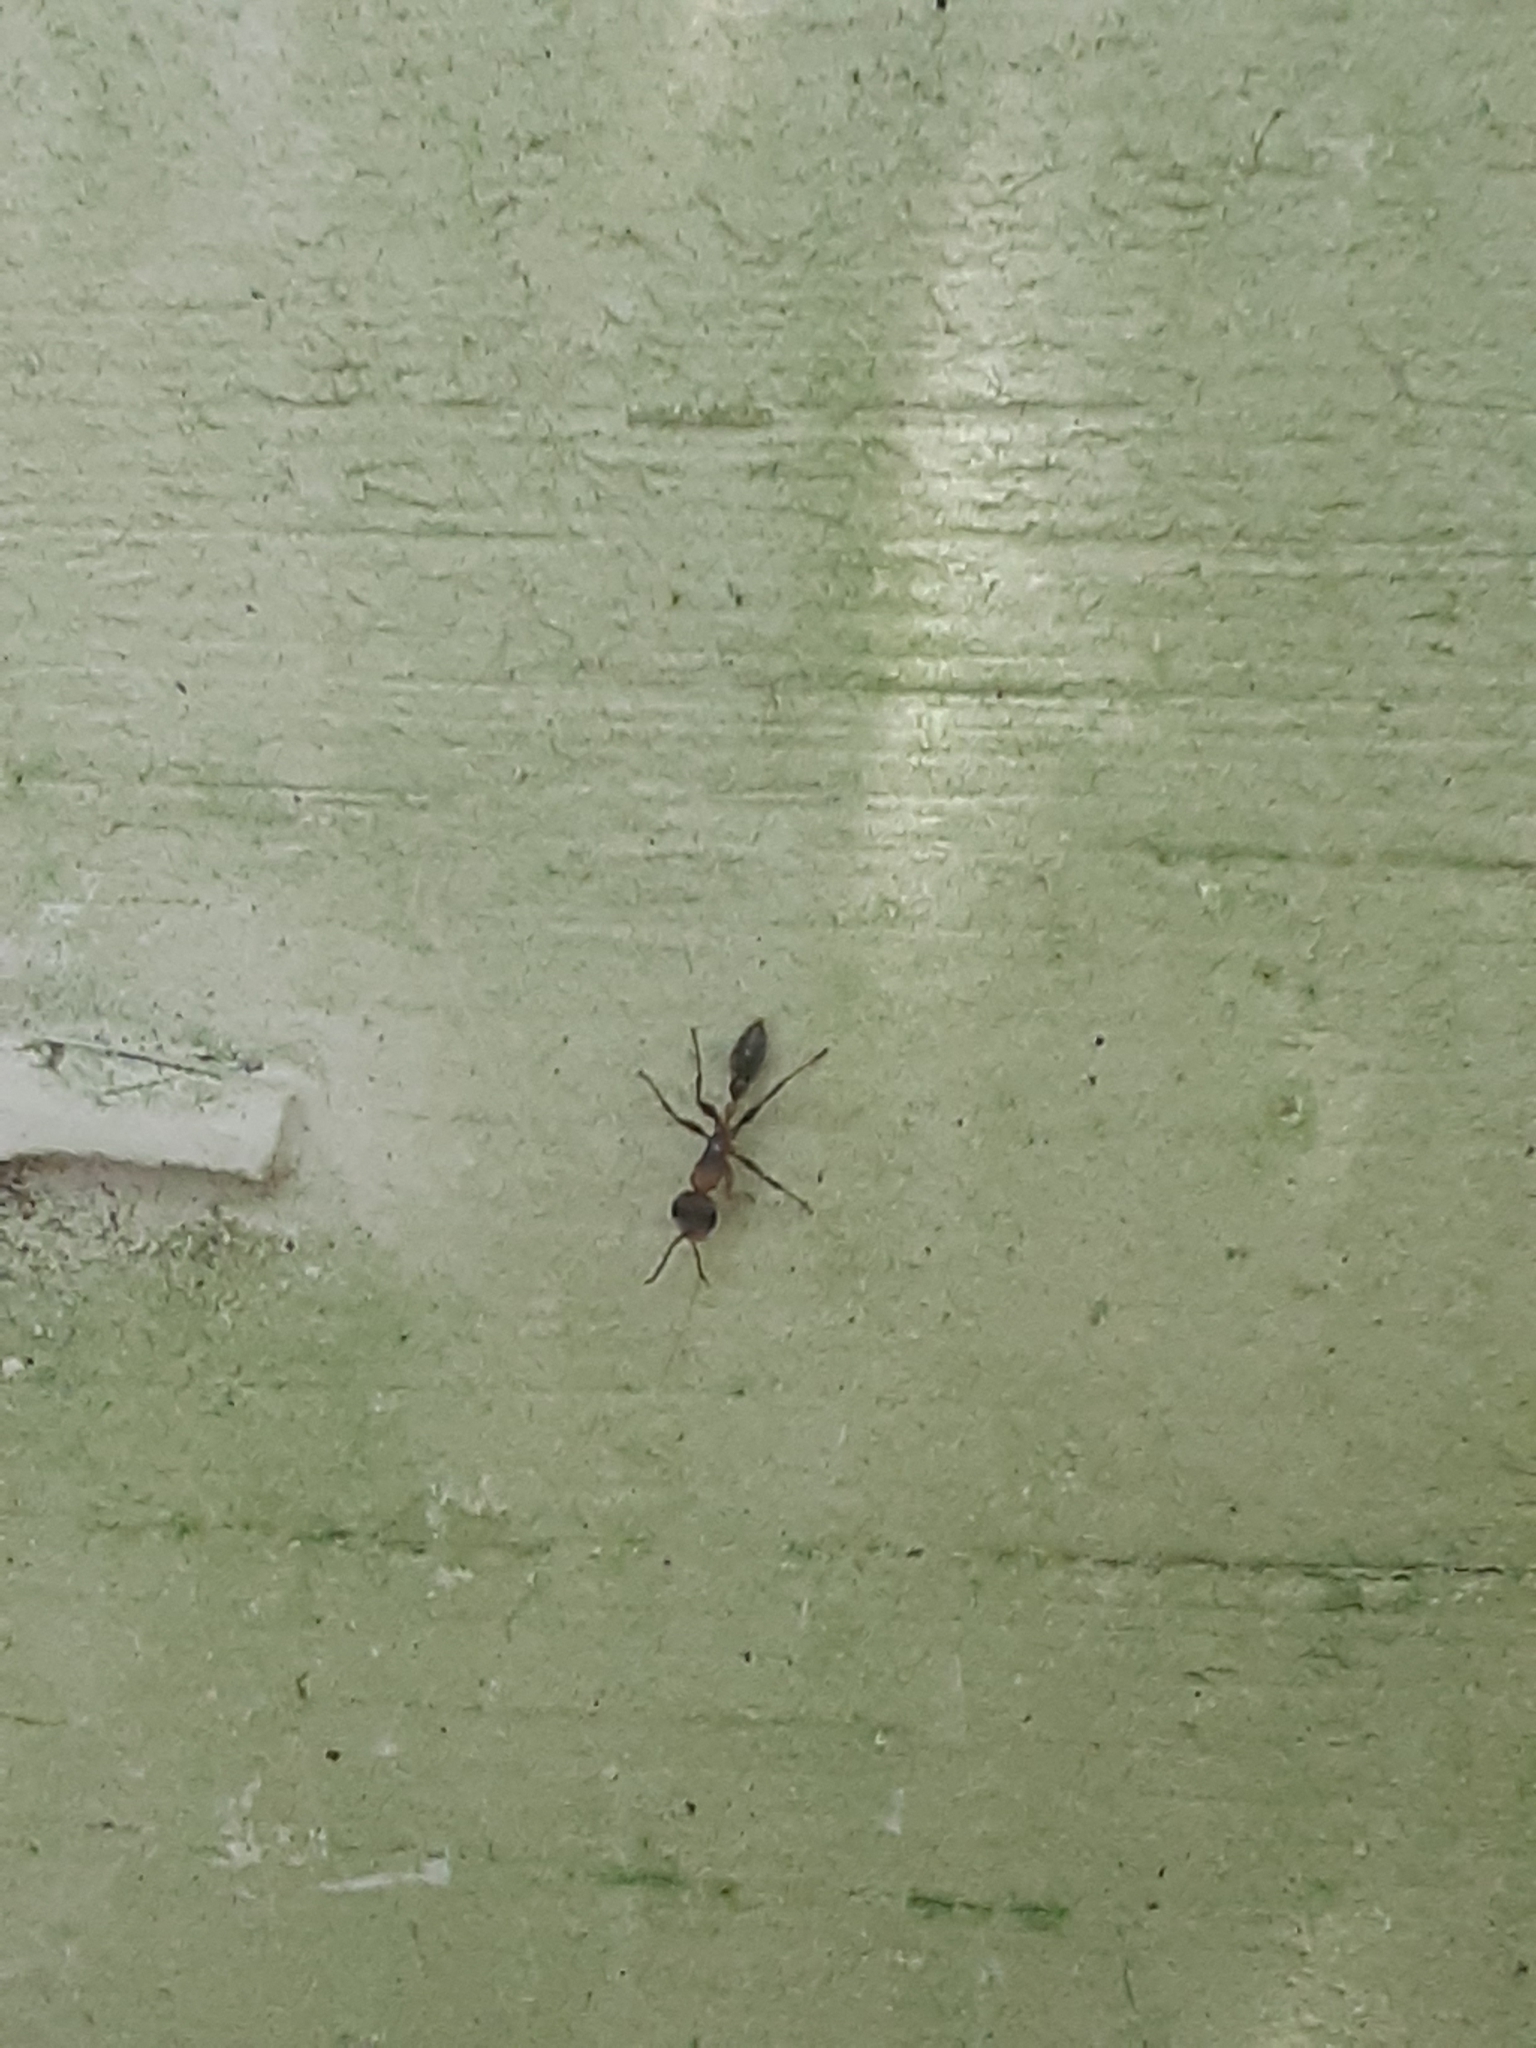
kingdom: Animalia
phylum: Arthropoda
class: Insecta
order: Hymenoptera
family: Formicidae
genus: Pseudomyrmex
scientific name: Pseudomyrmex gracilis
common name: Graceful twig ant
